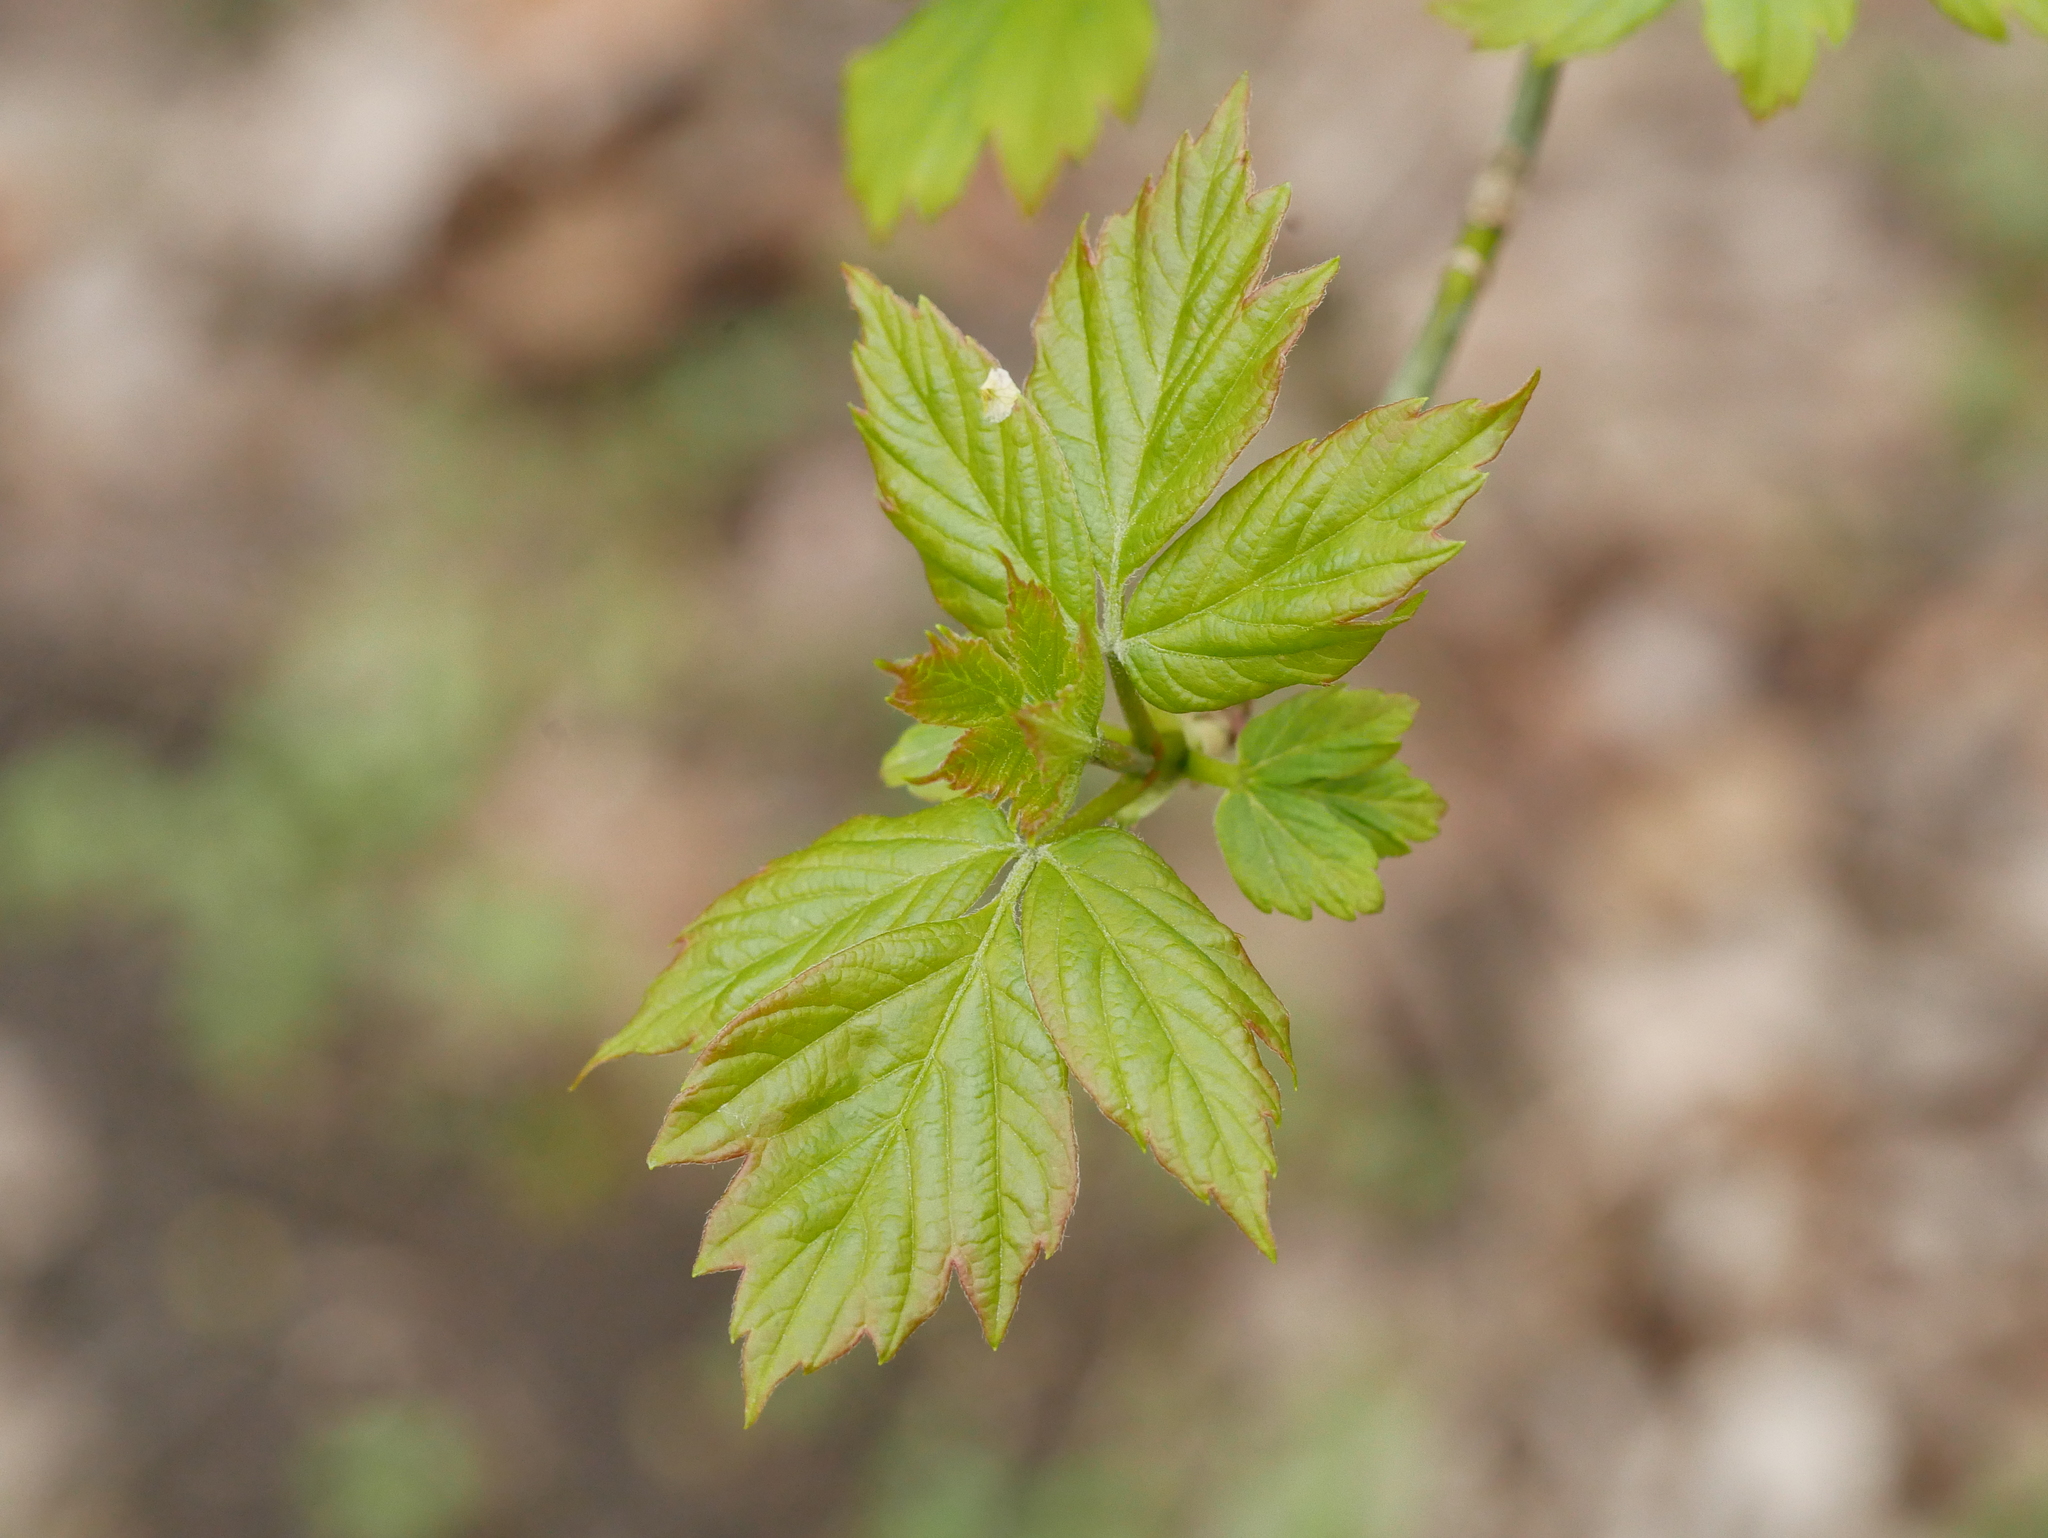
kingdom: Plantae
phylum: Tracheophyta
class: Magnoliopsida
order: Sapindales
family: Sapindaceae
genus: Acer
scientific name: Acer negundo
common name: Ashleaf maple
